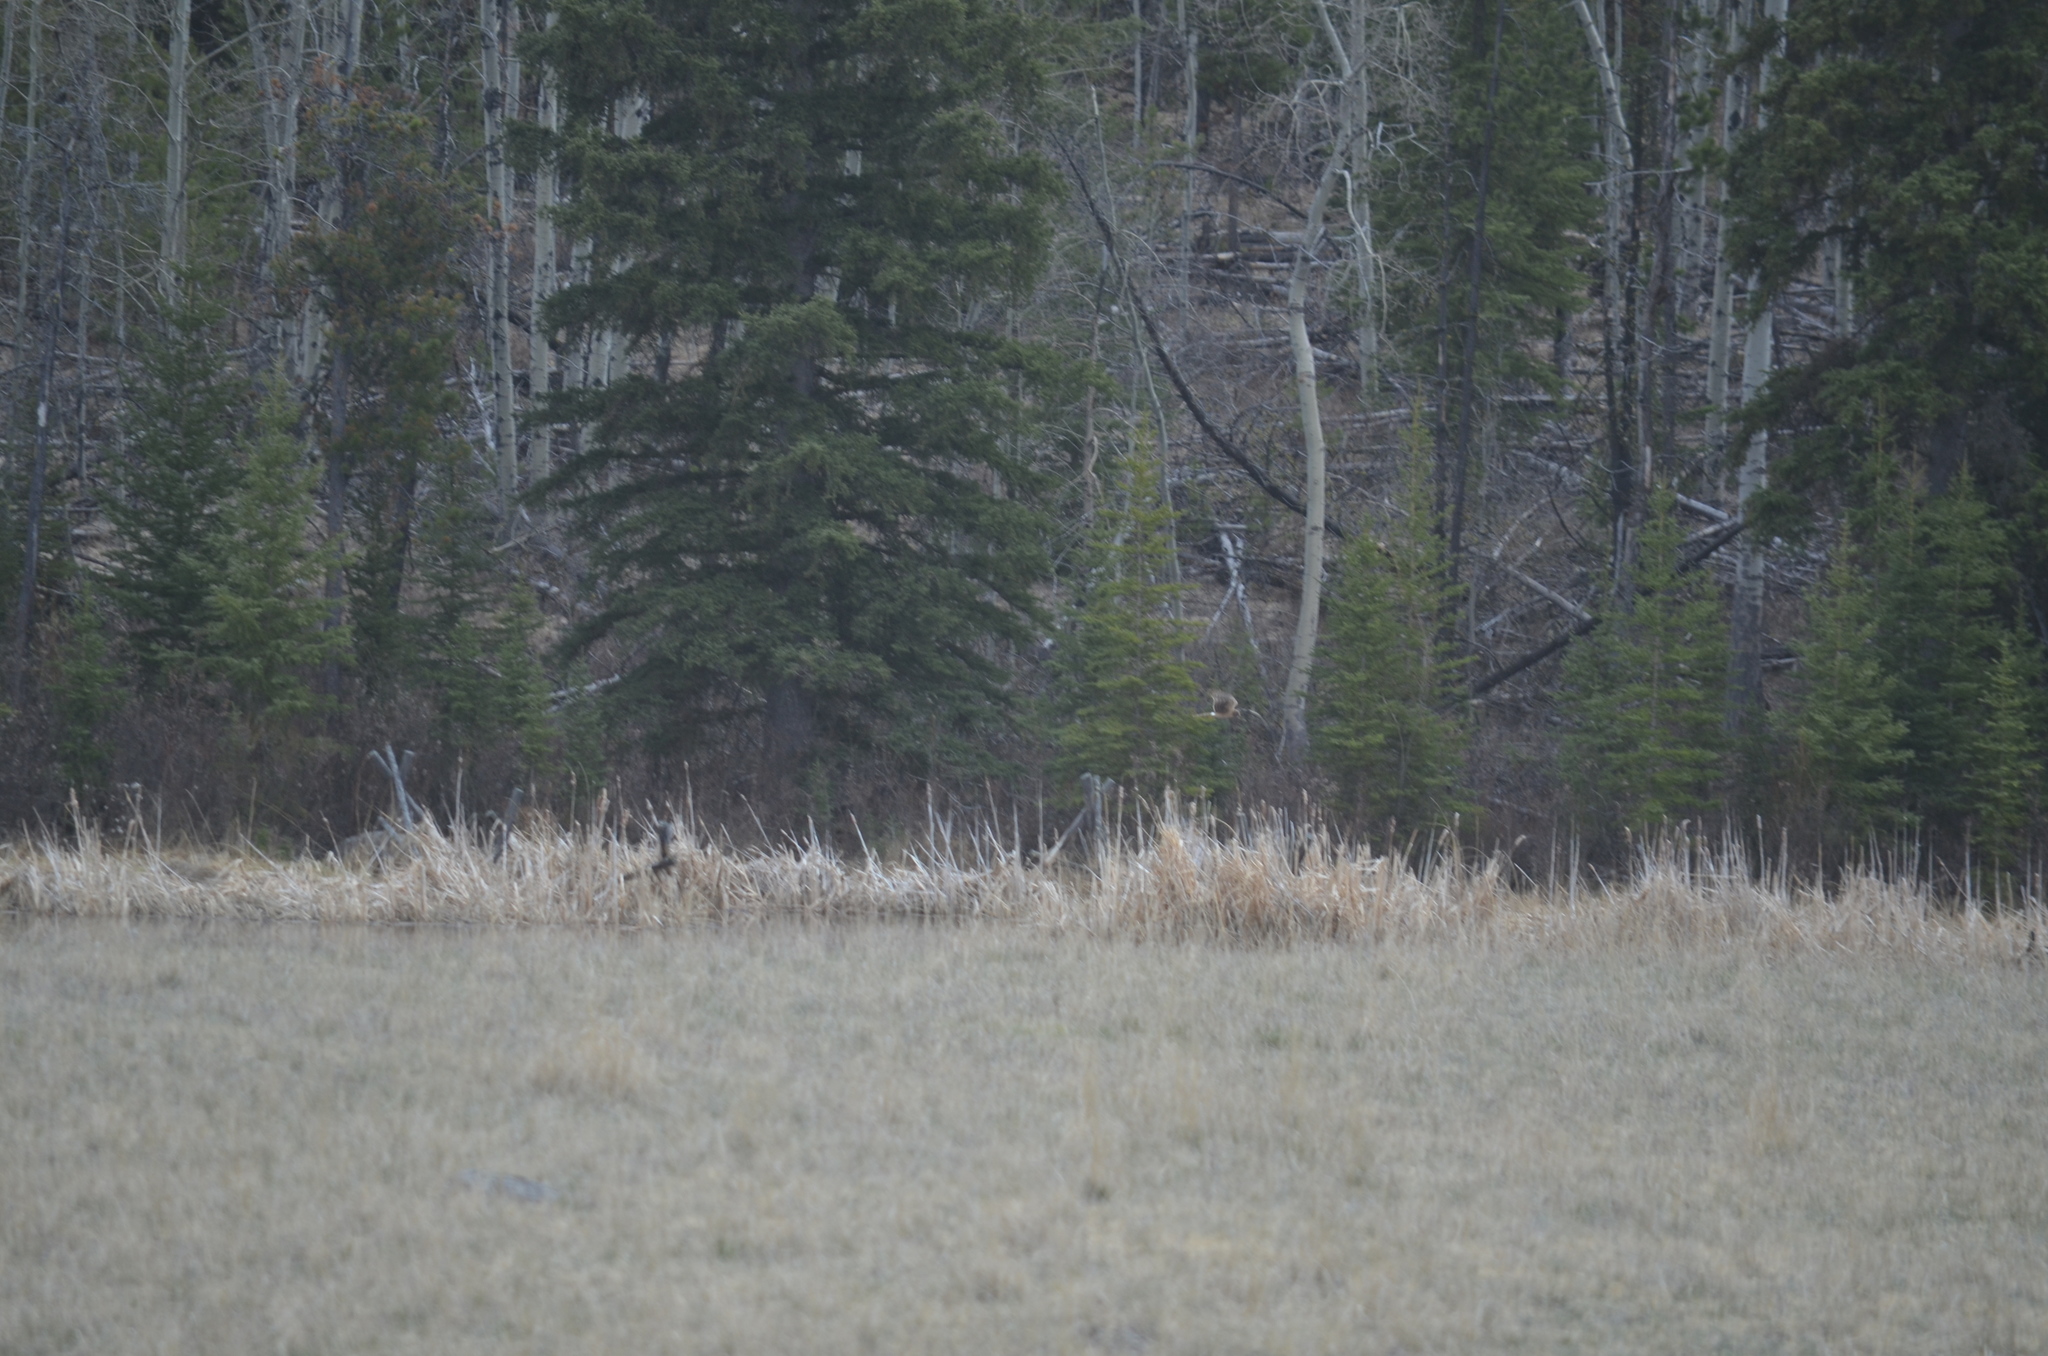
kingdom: Animalia
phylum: Chordata
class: Aves
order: Accipitriformes
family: Accipitridae
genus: Circus
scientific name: Circus cyaneus
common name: Hen harrier
